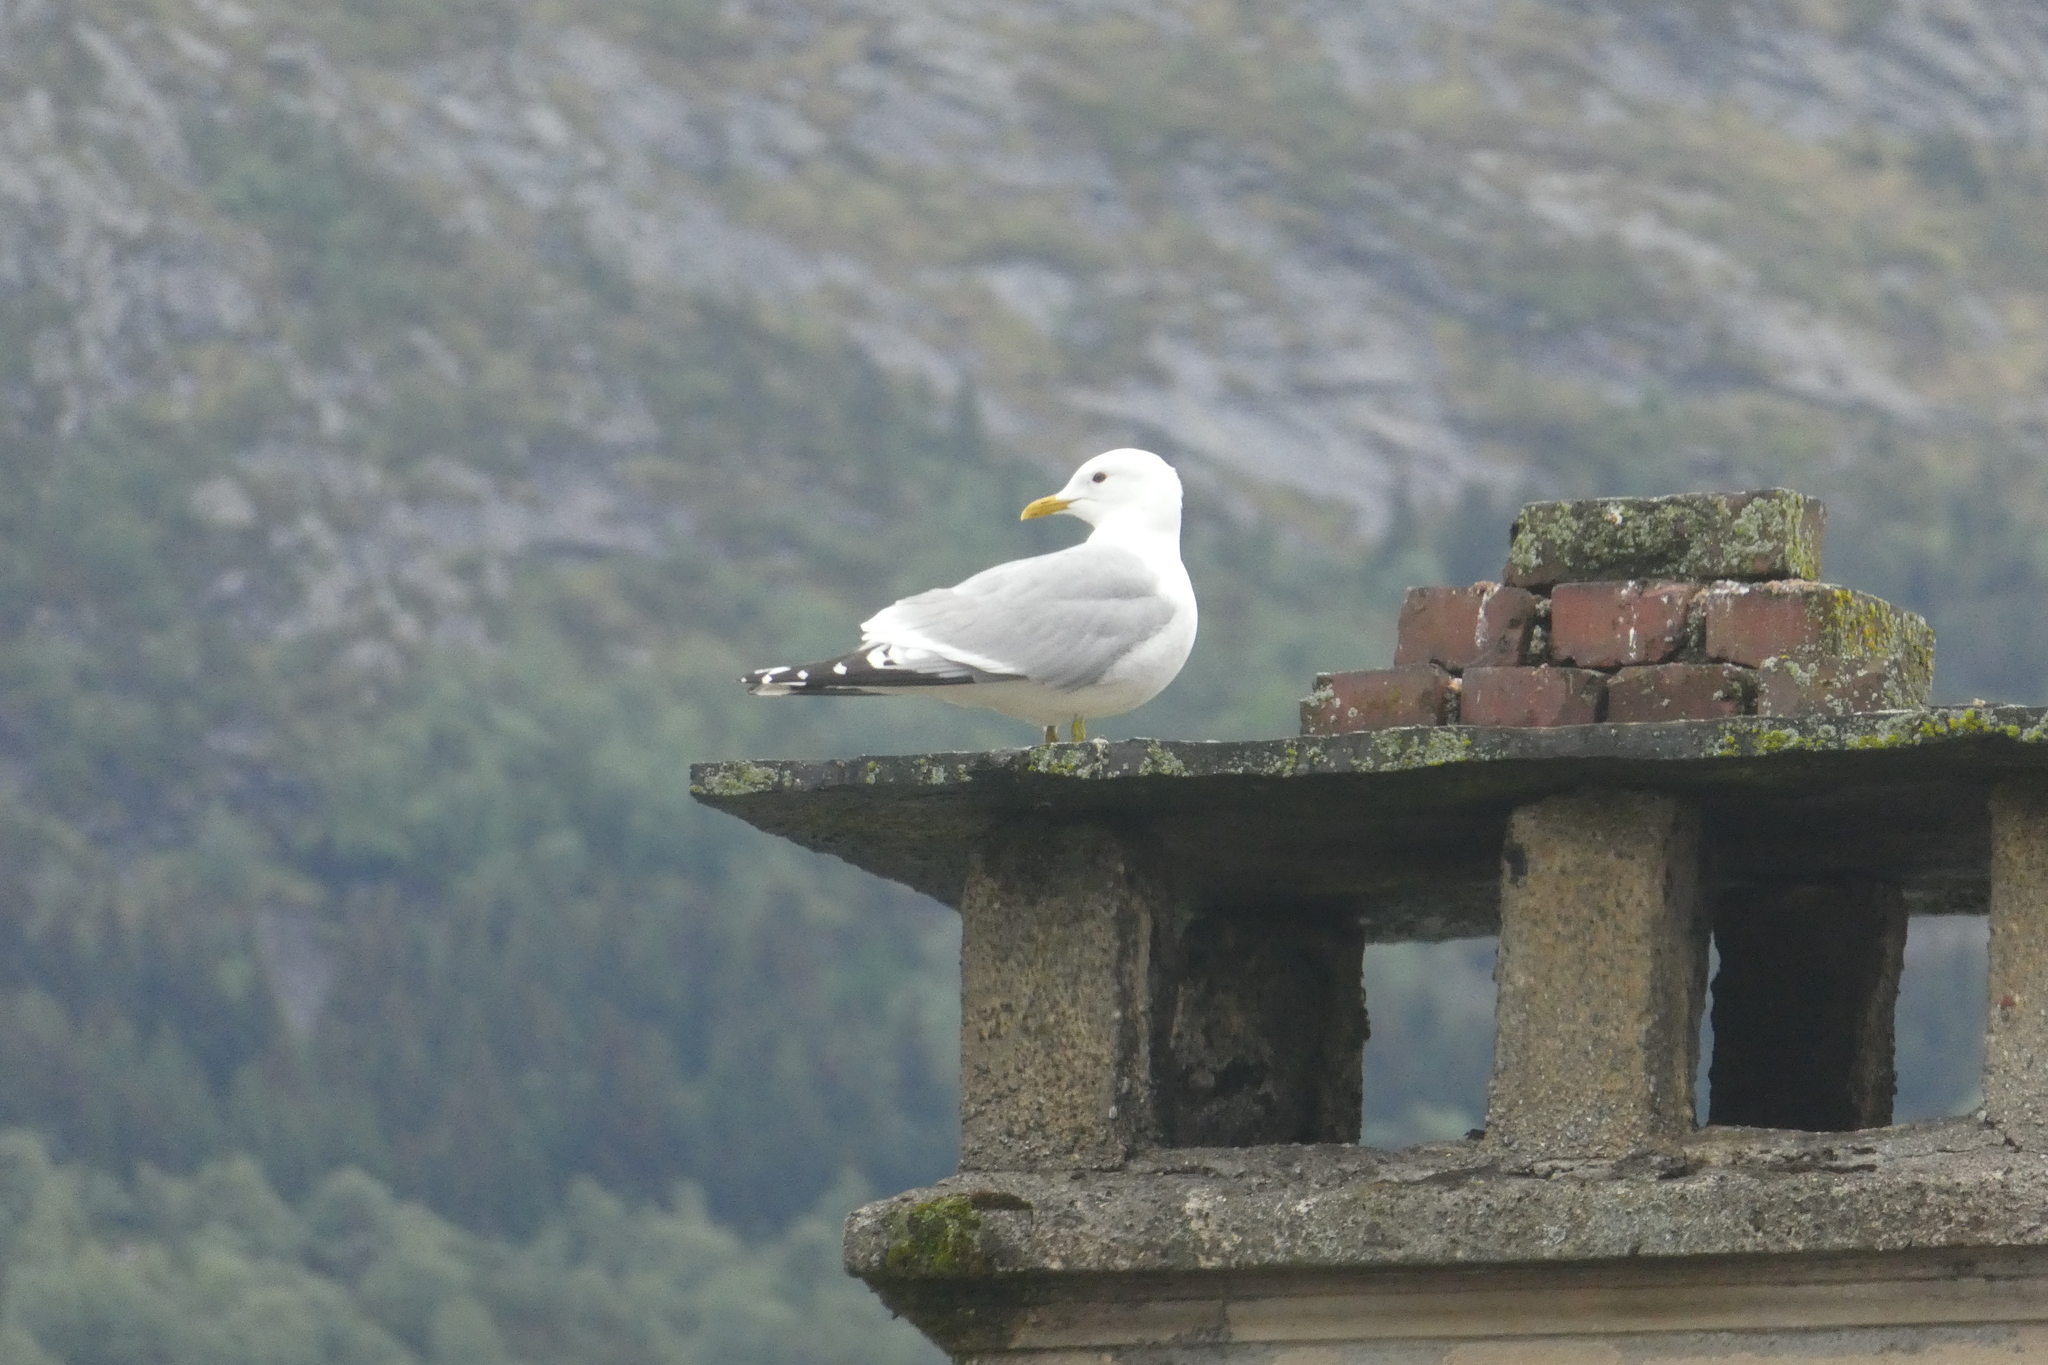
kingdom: Animalia
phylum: Chordata
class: Aves
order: Charadriiformes
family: Laridae
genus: Larus
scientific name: Larus canus
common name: Mew gull
